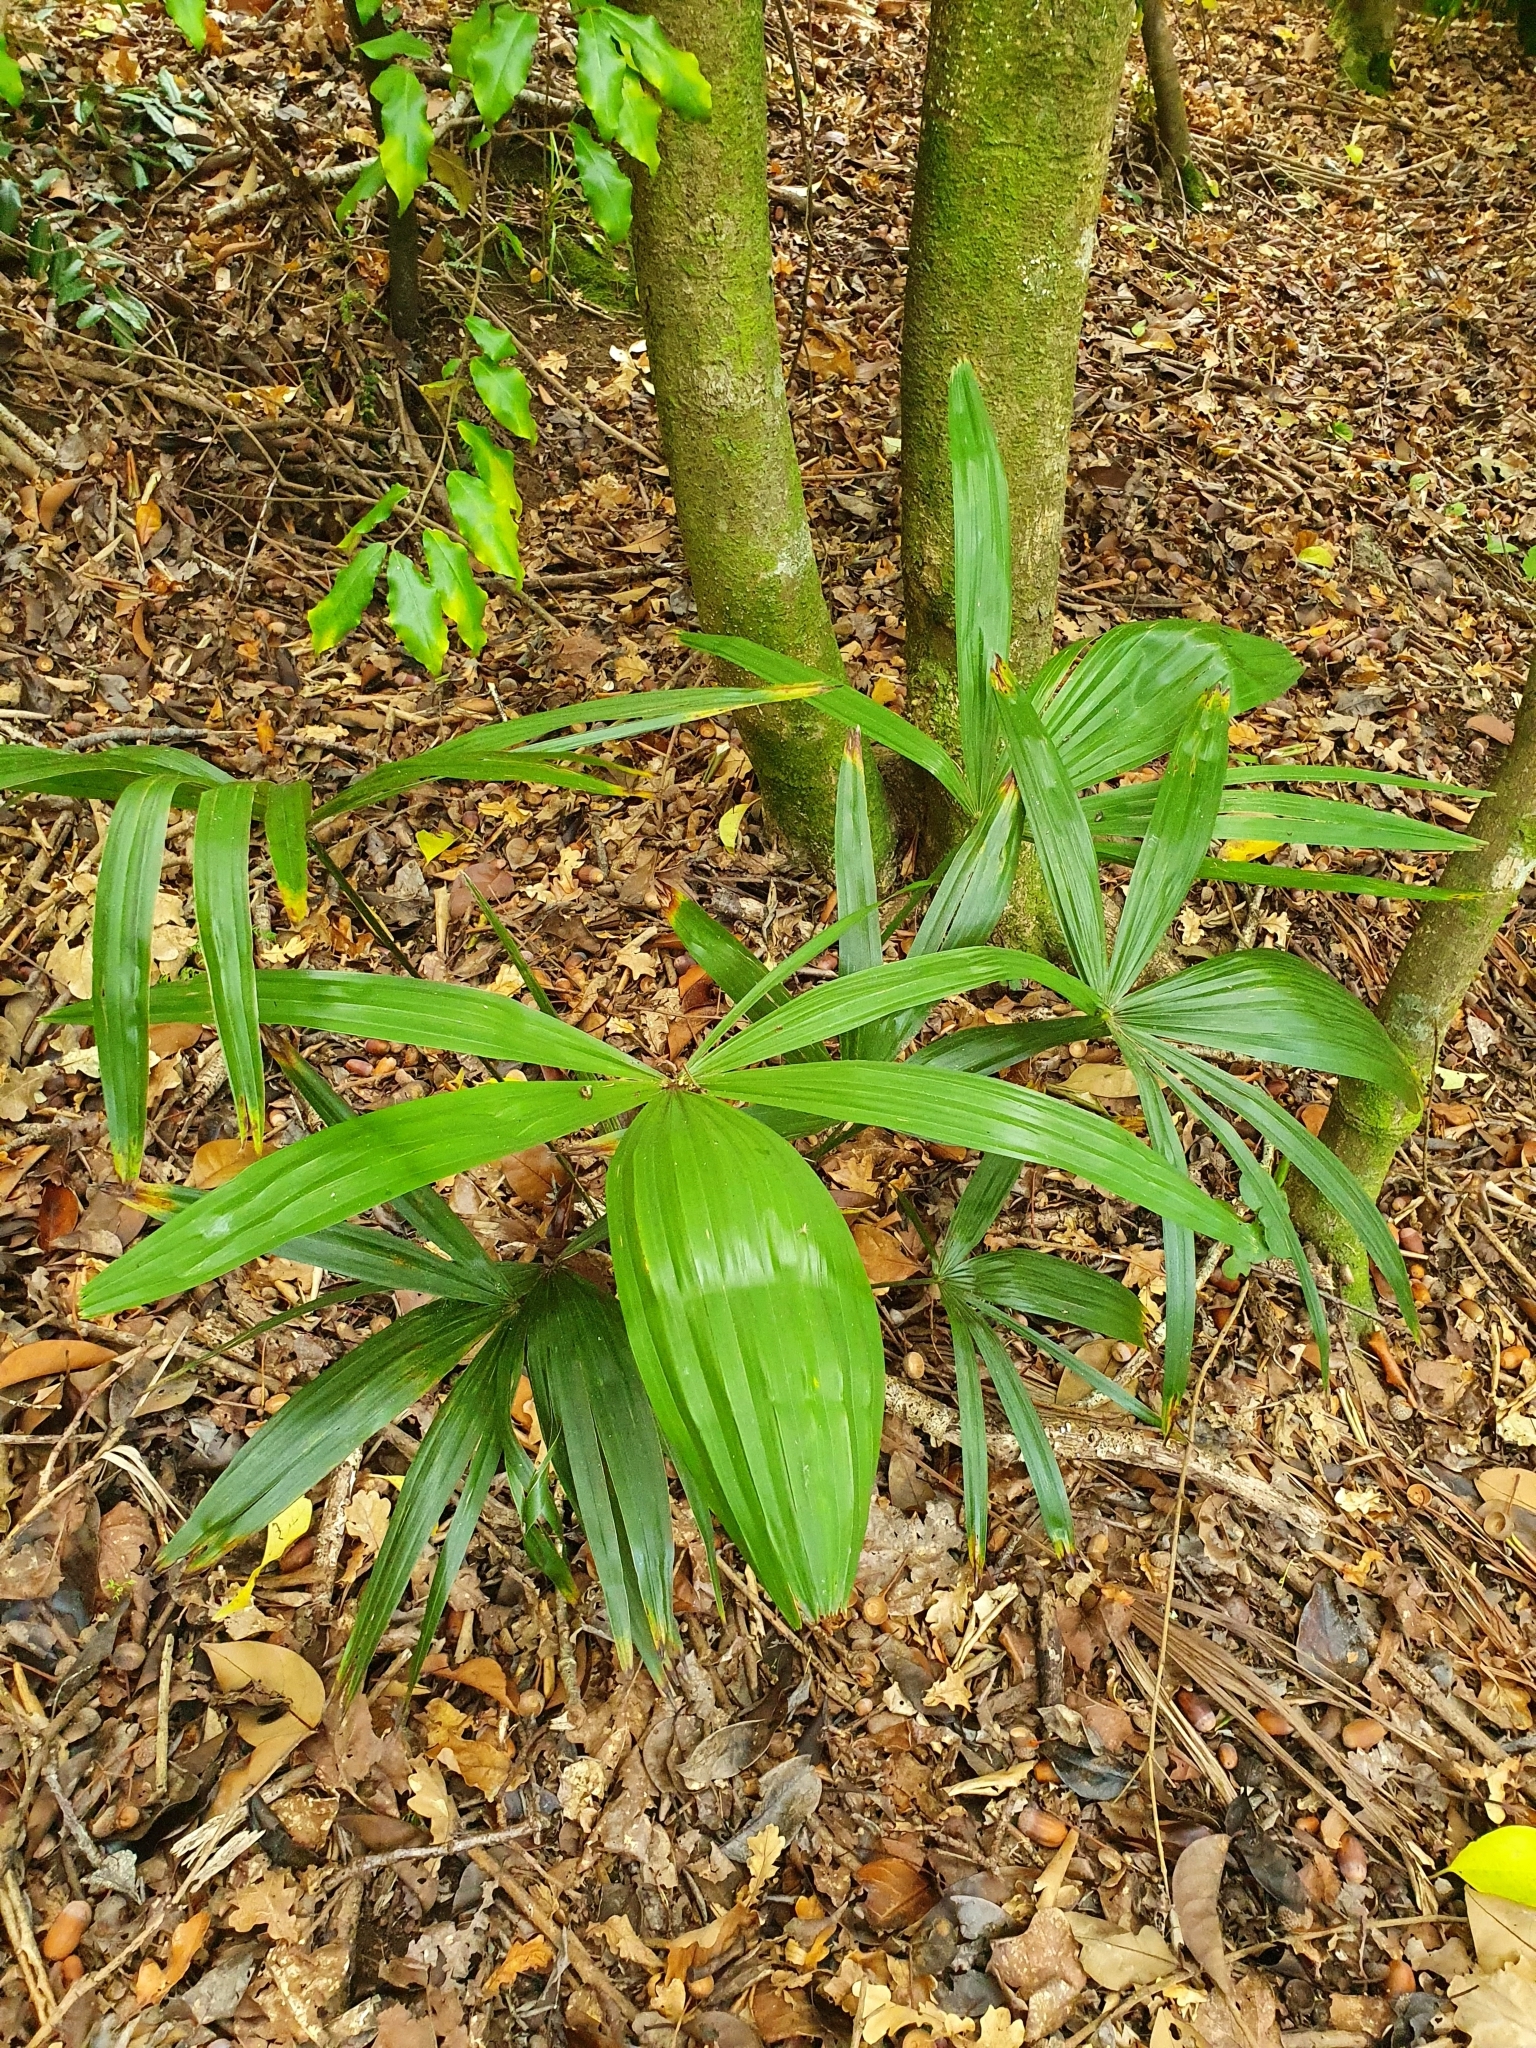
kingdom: Plantae
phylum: Tracheophyta
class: Liliopsida
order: Arecales
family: Arecaceae
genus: Trachycarpus
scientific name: Trachycarpus fortunei
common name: Chusan palm
